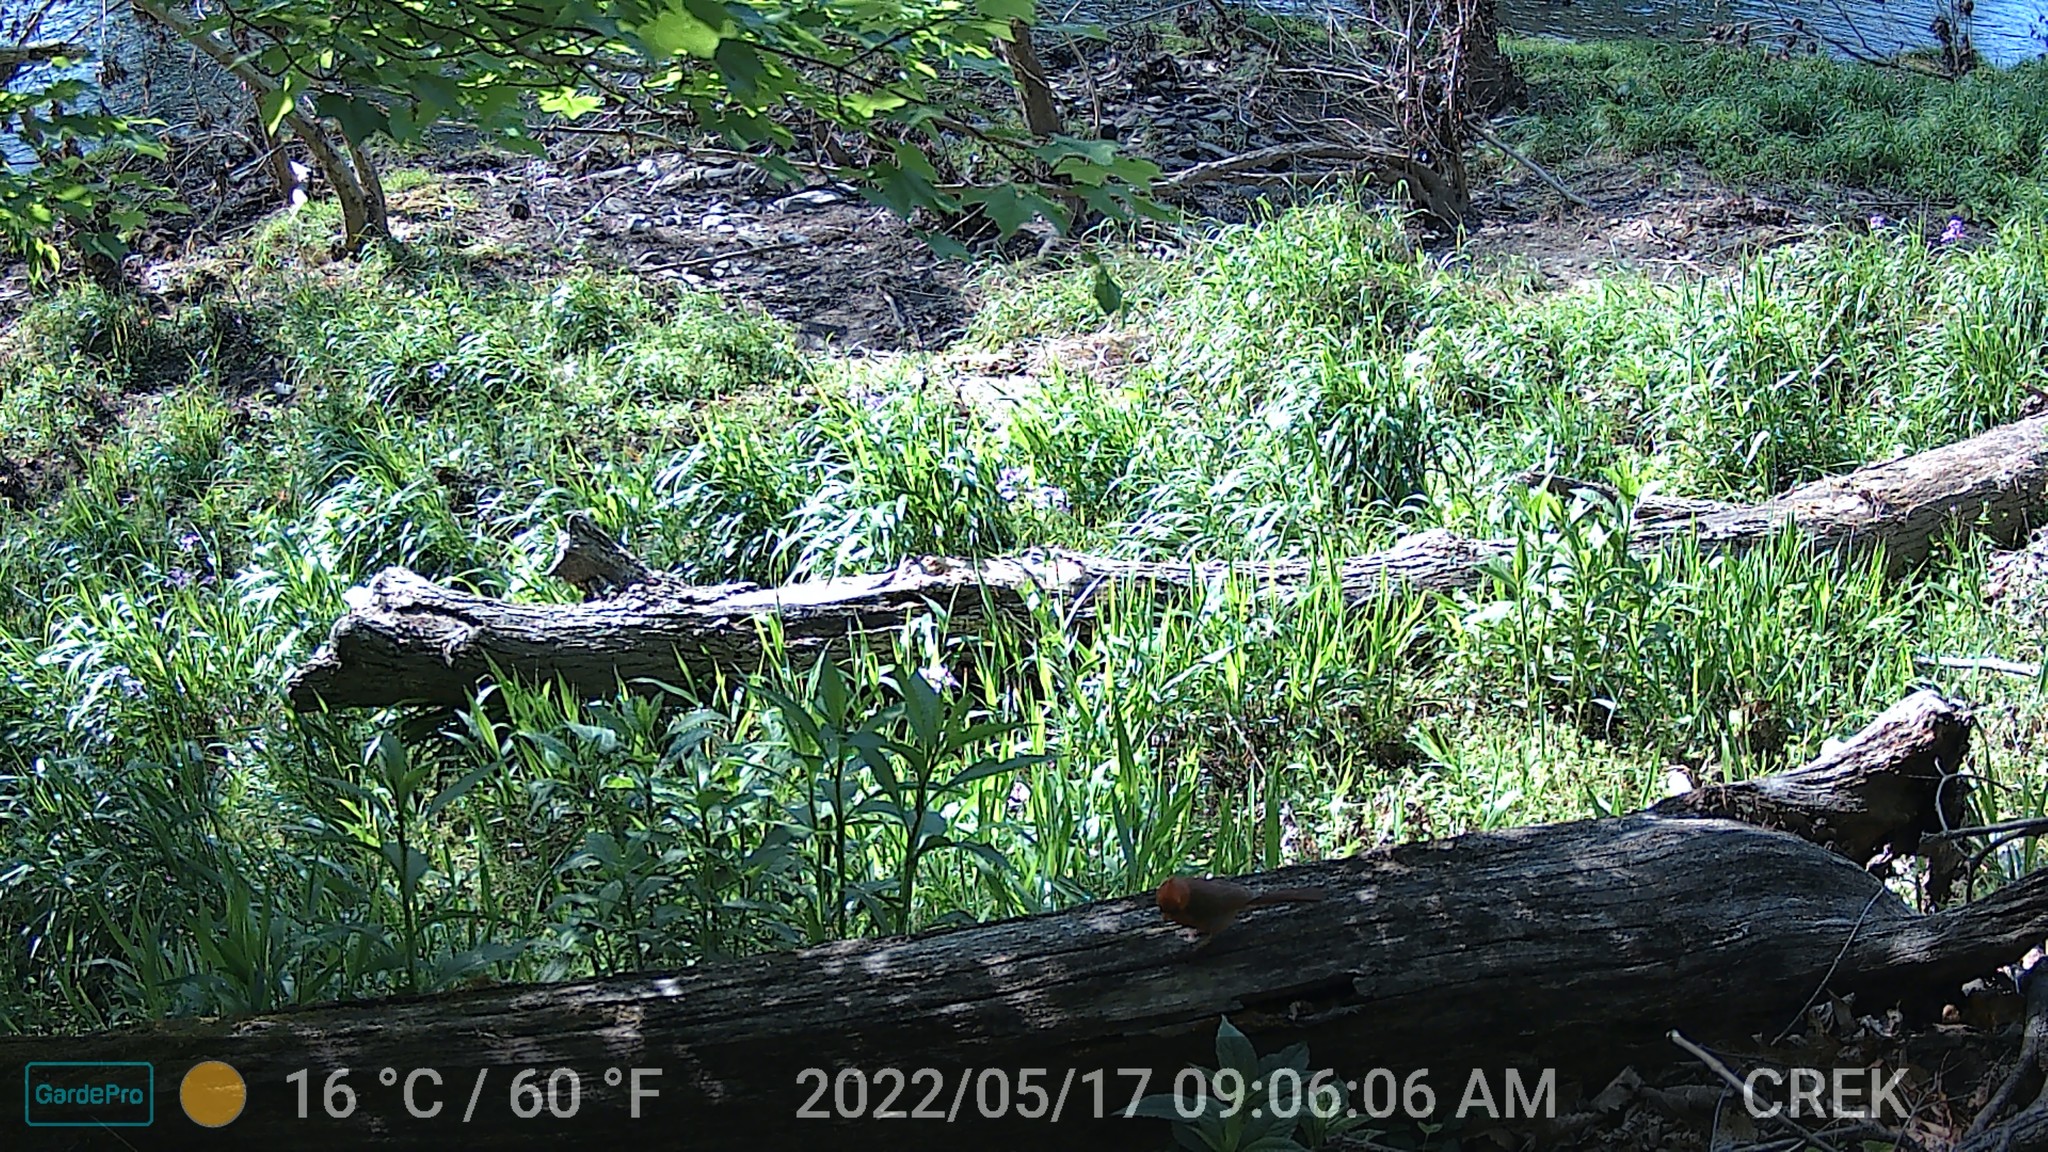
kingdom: Animalia
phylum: Chordata
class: Aves
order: Passeriformes
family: Cardinalidae
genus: Cardinalis
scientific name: Cardinalis cardinalis
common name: Northern cardinal
